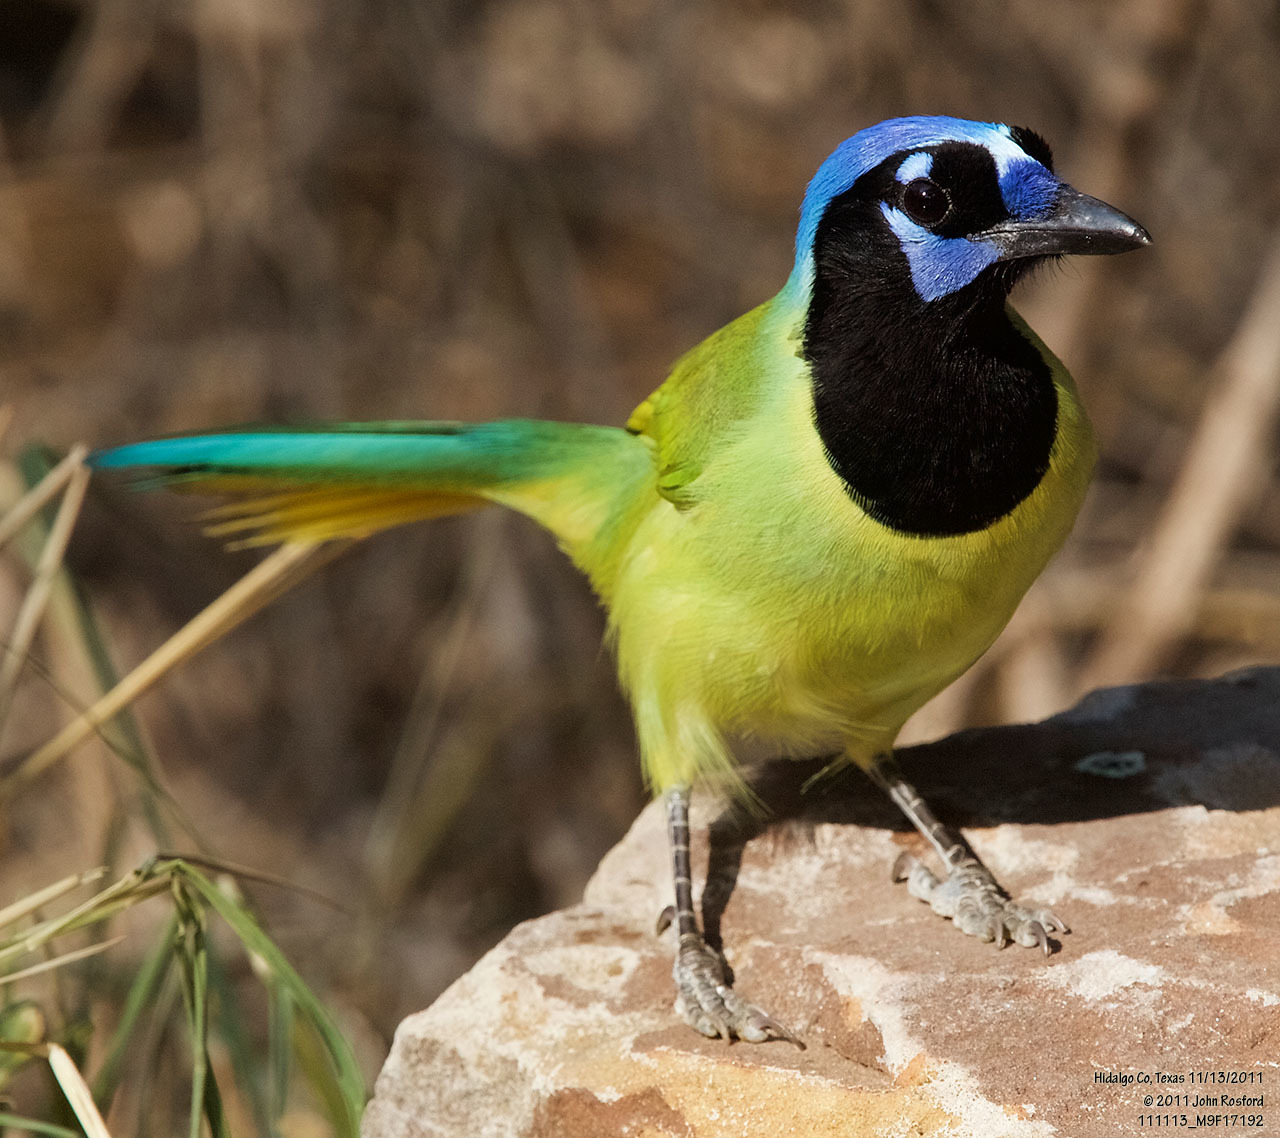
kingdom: Animalia
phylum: Chordata
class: Aves
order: Passeriformes
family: Corvidae
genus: Cyanocorax
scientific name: Cyanocorax yncas
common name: Green jay
